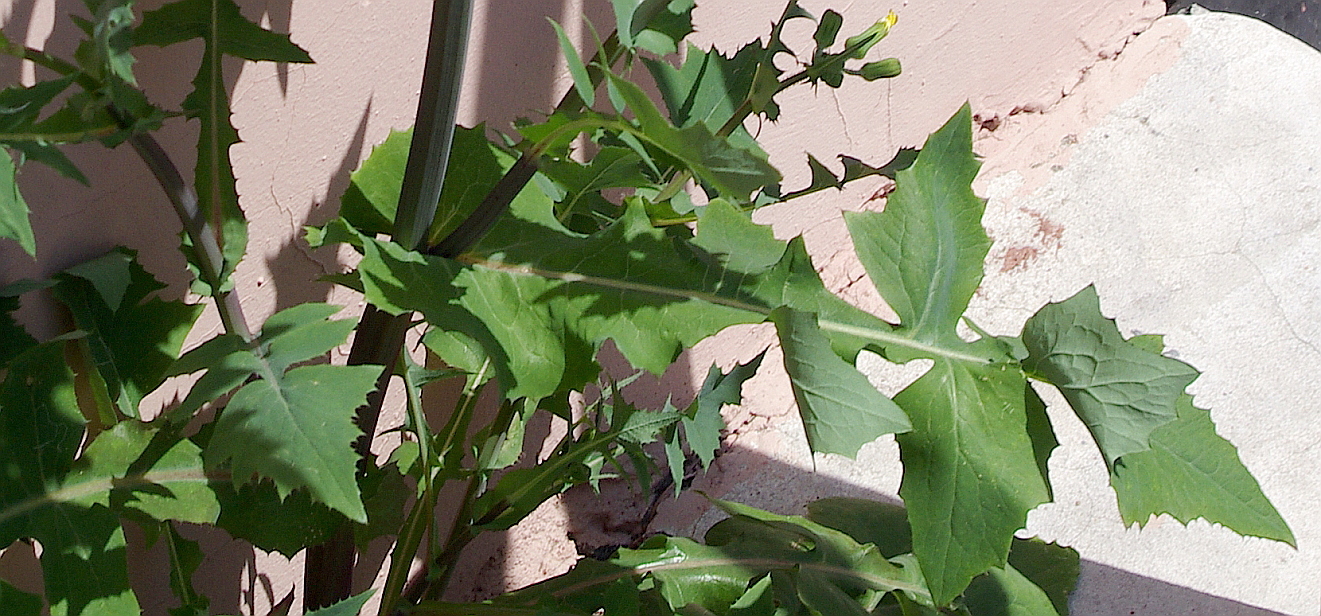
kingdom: Plantae
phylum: Tracheophyta
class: Magnoliopsida
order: Asterales
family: Asteraceae
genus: Sonchus
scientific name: Sonchus oleraceus
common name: Common sowthistle
